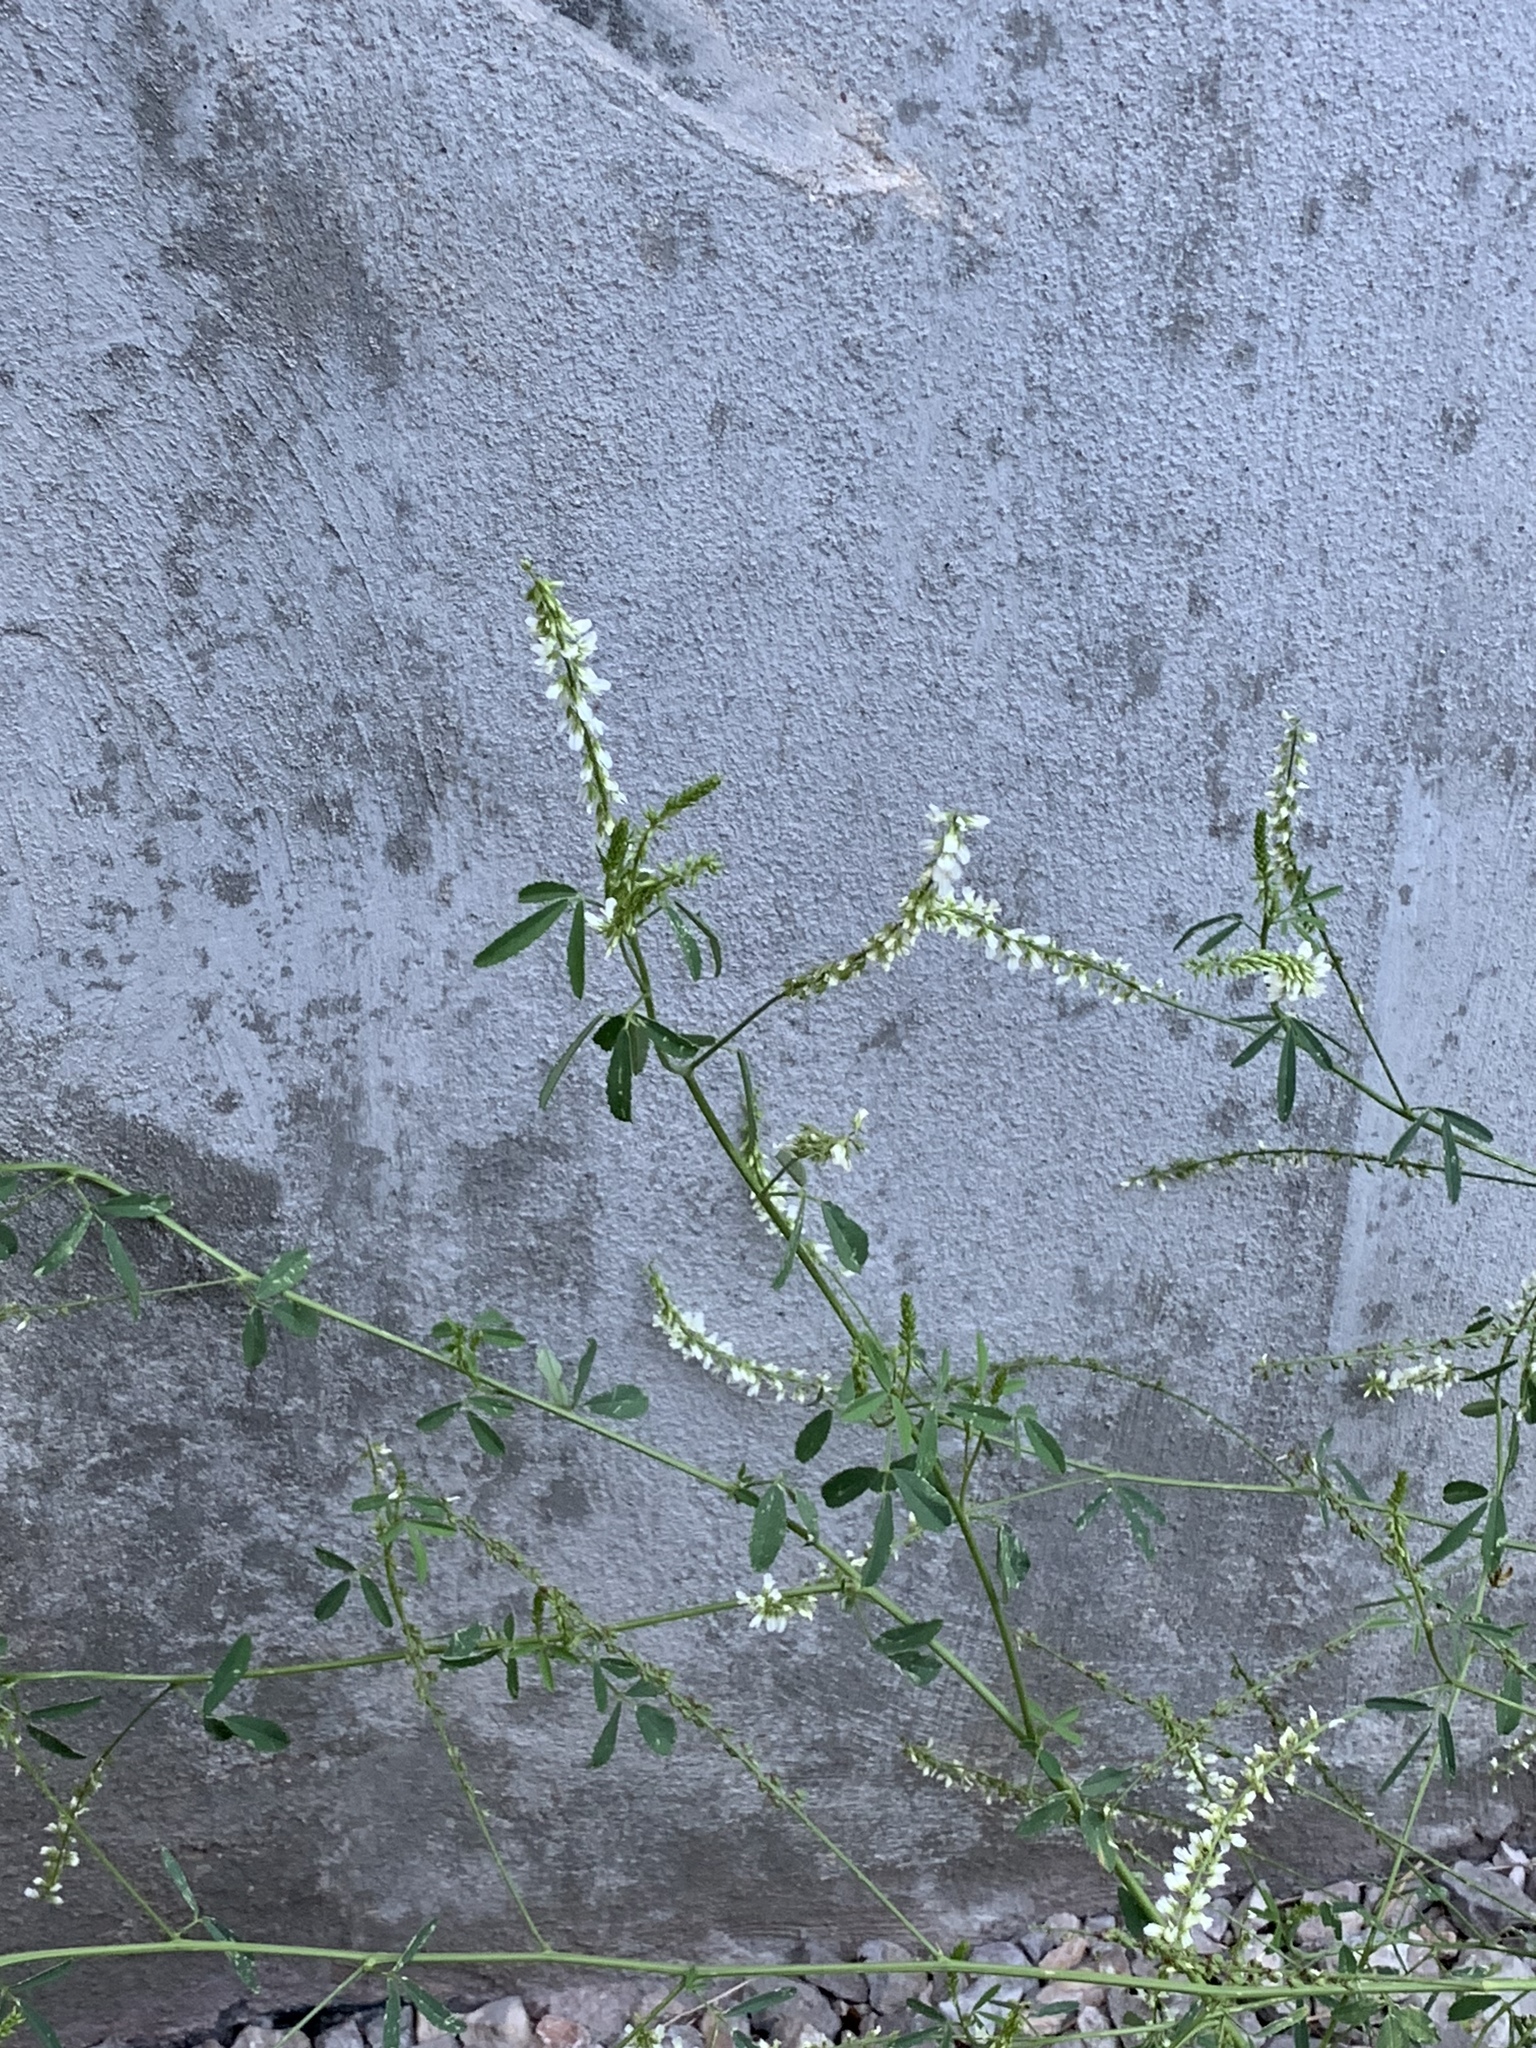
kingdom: Plantae
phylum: Tracheophyta
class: Magnoliopsida
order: Fabales
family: Fabaceae
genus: Melilotus
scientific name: Melilotus albus
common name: White melilot
